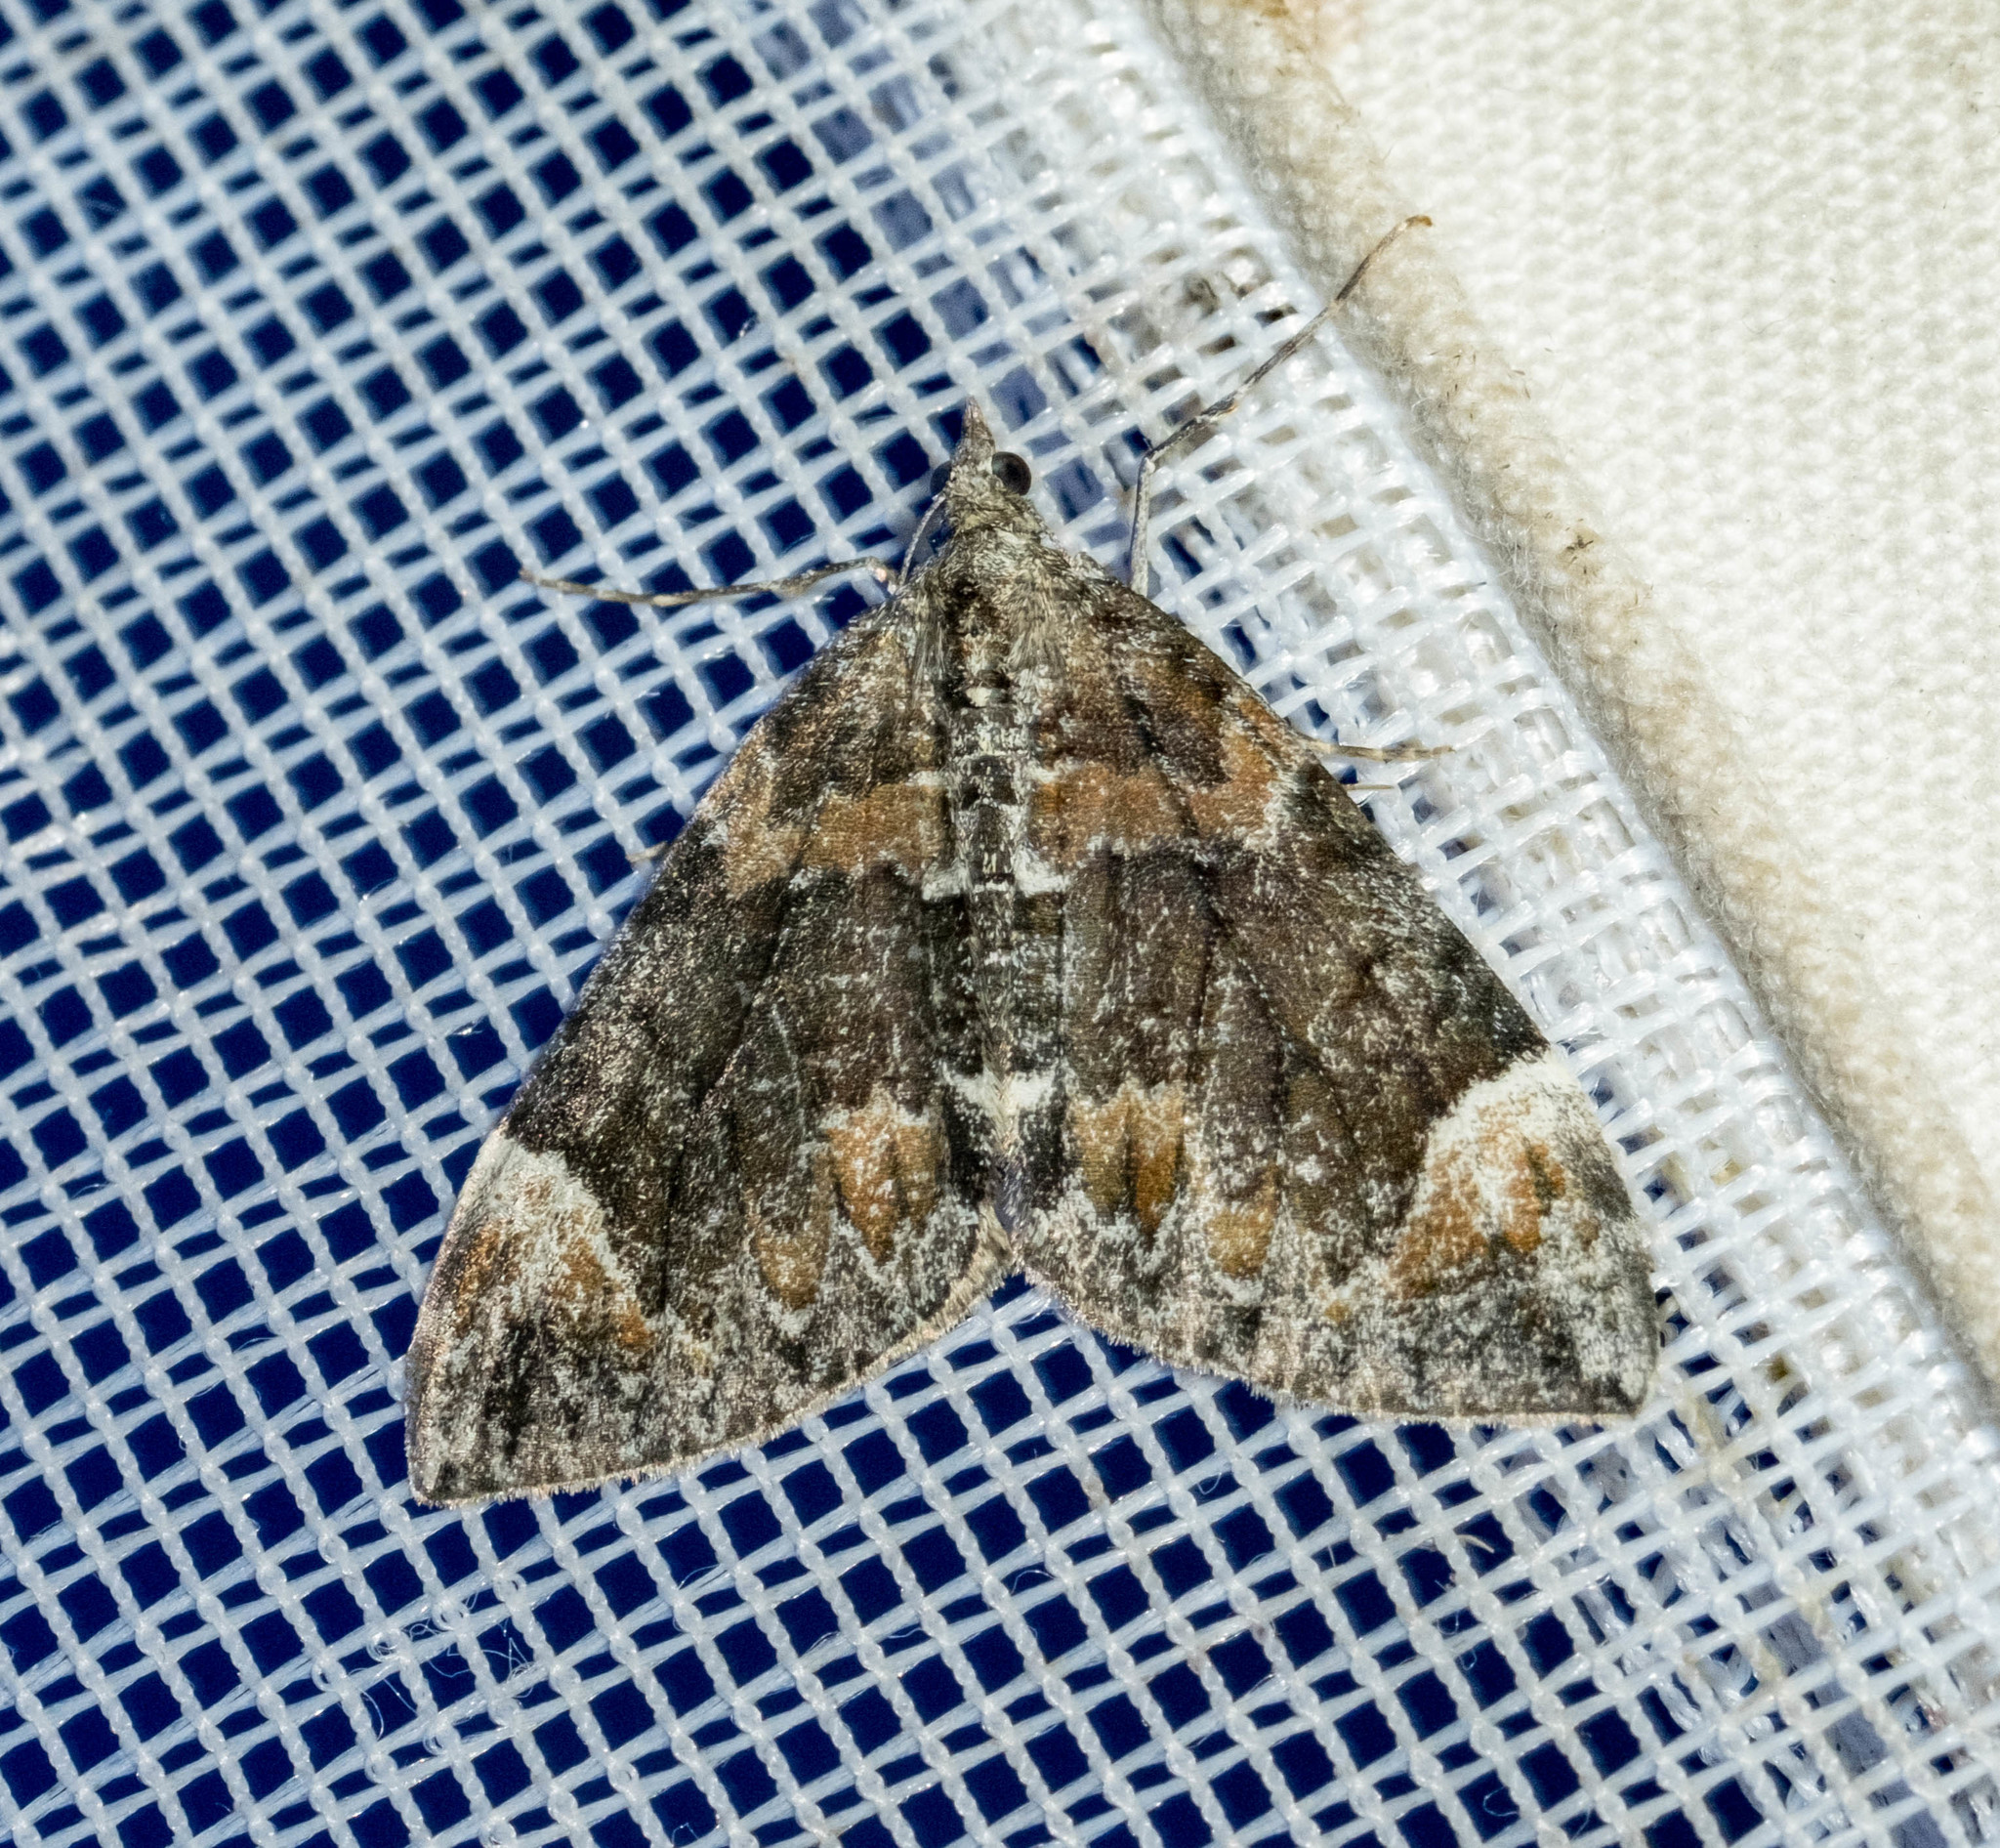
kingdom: Animalia
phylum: Arthropoda
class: Insecta
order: Lepidoptera
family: Geometridae
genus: Dysstroma
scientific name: Dysstroma citrata
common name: Dark marbled carpet
